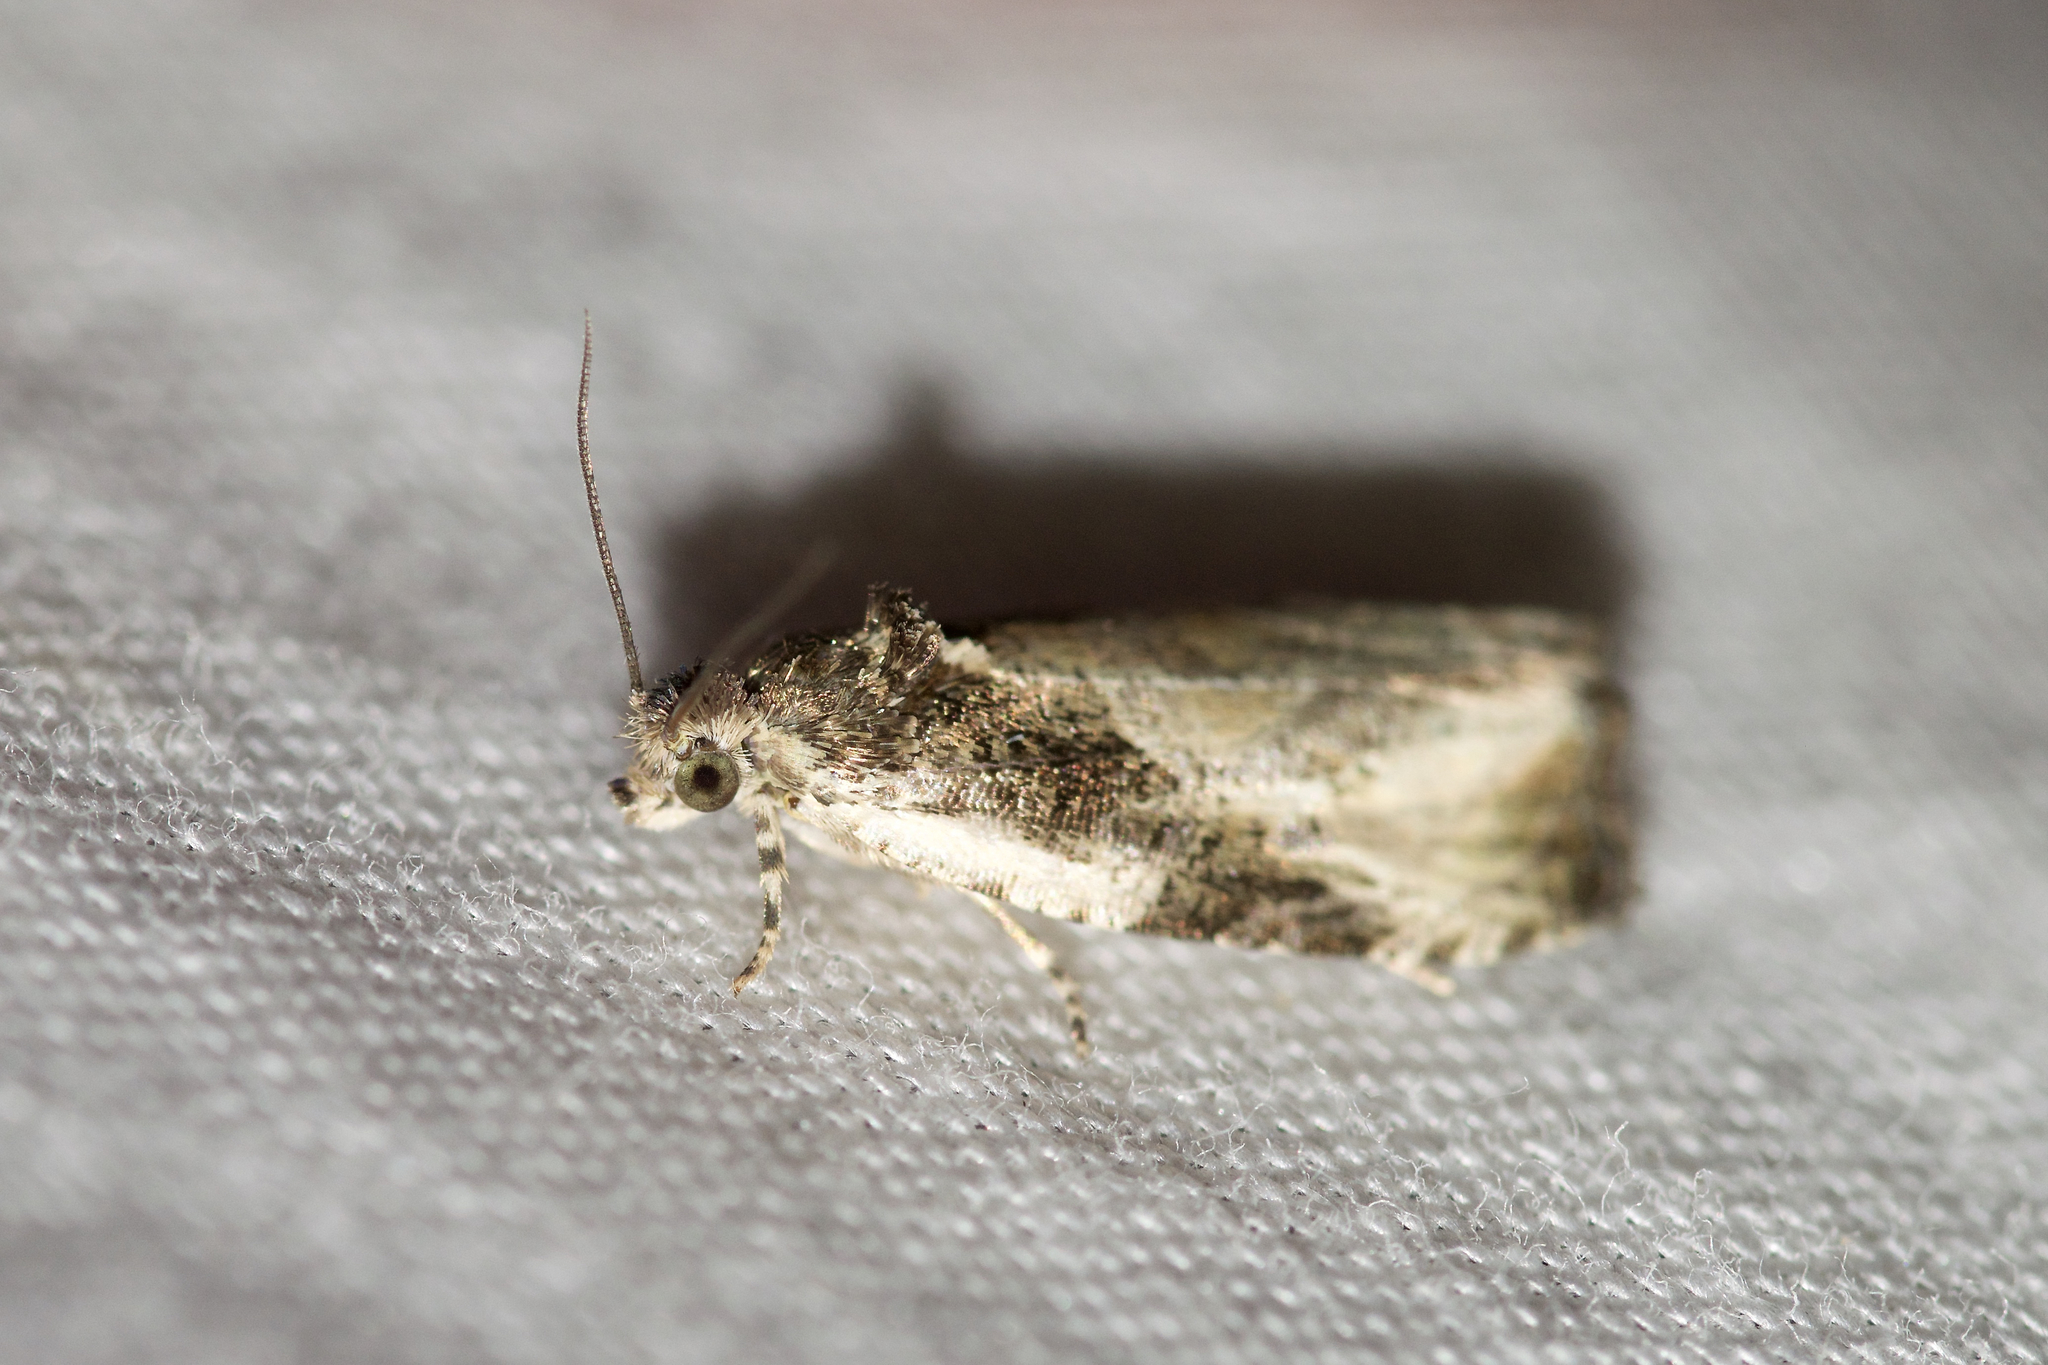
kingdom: Animalia
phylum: Arthropoda
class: Insecta
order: Lepidoptera
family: Tortricidae
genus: Olethreutes
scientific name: Olethreutes connectum
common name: Bunchberry leaffolder moth
